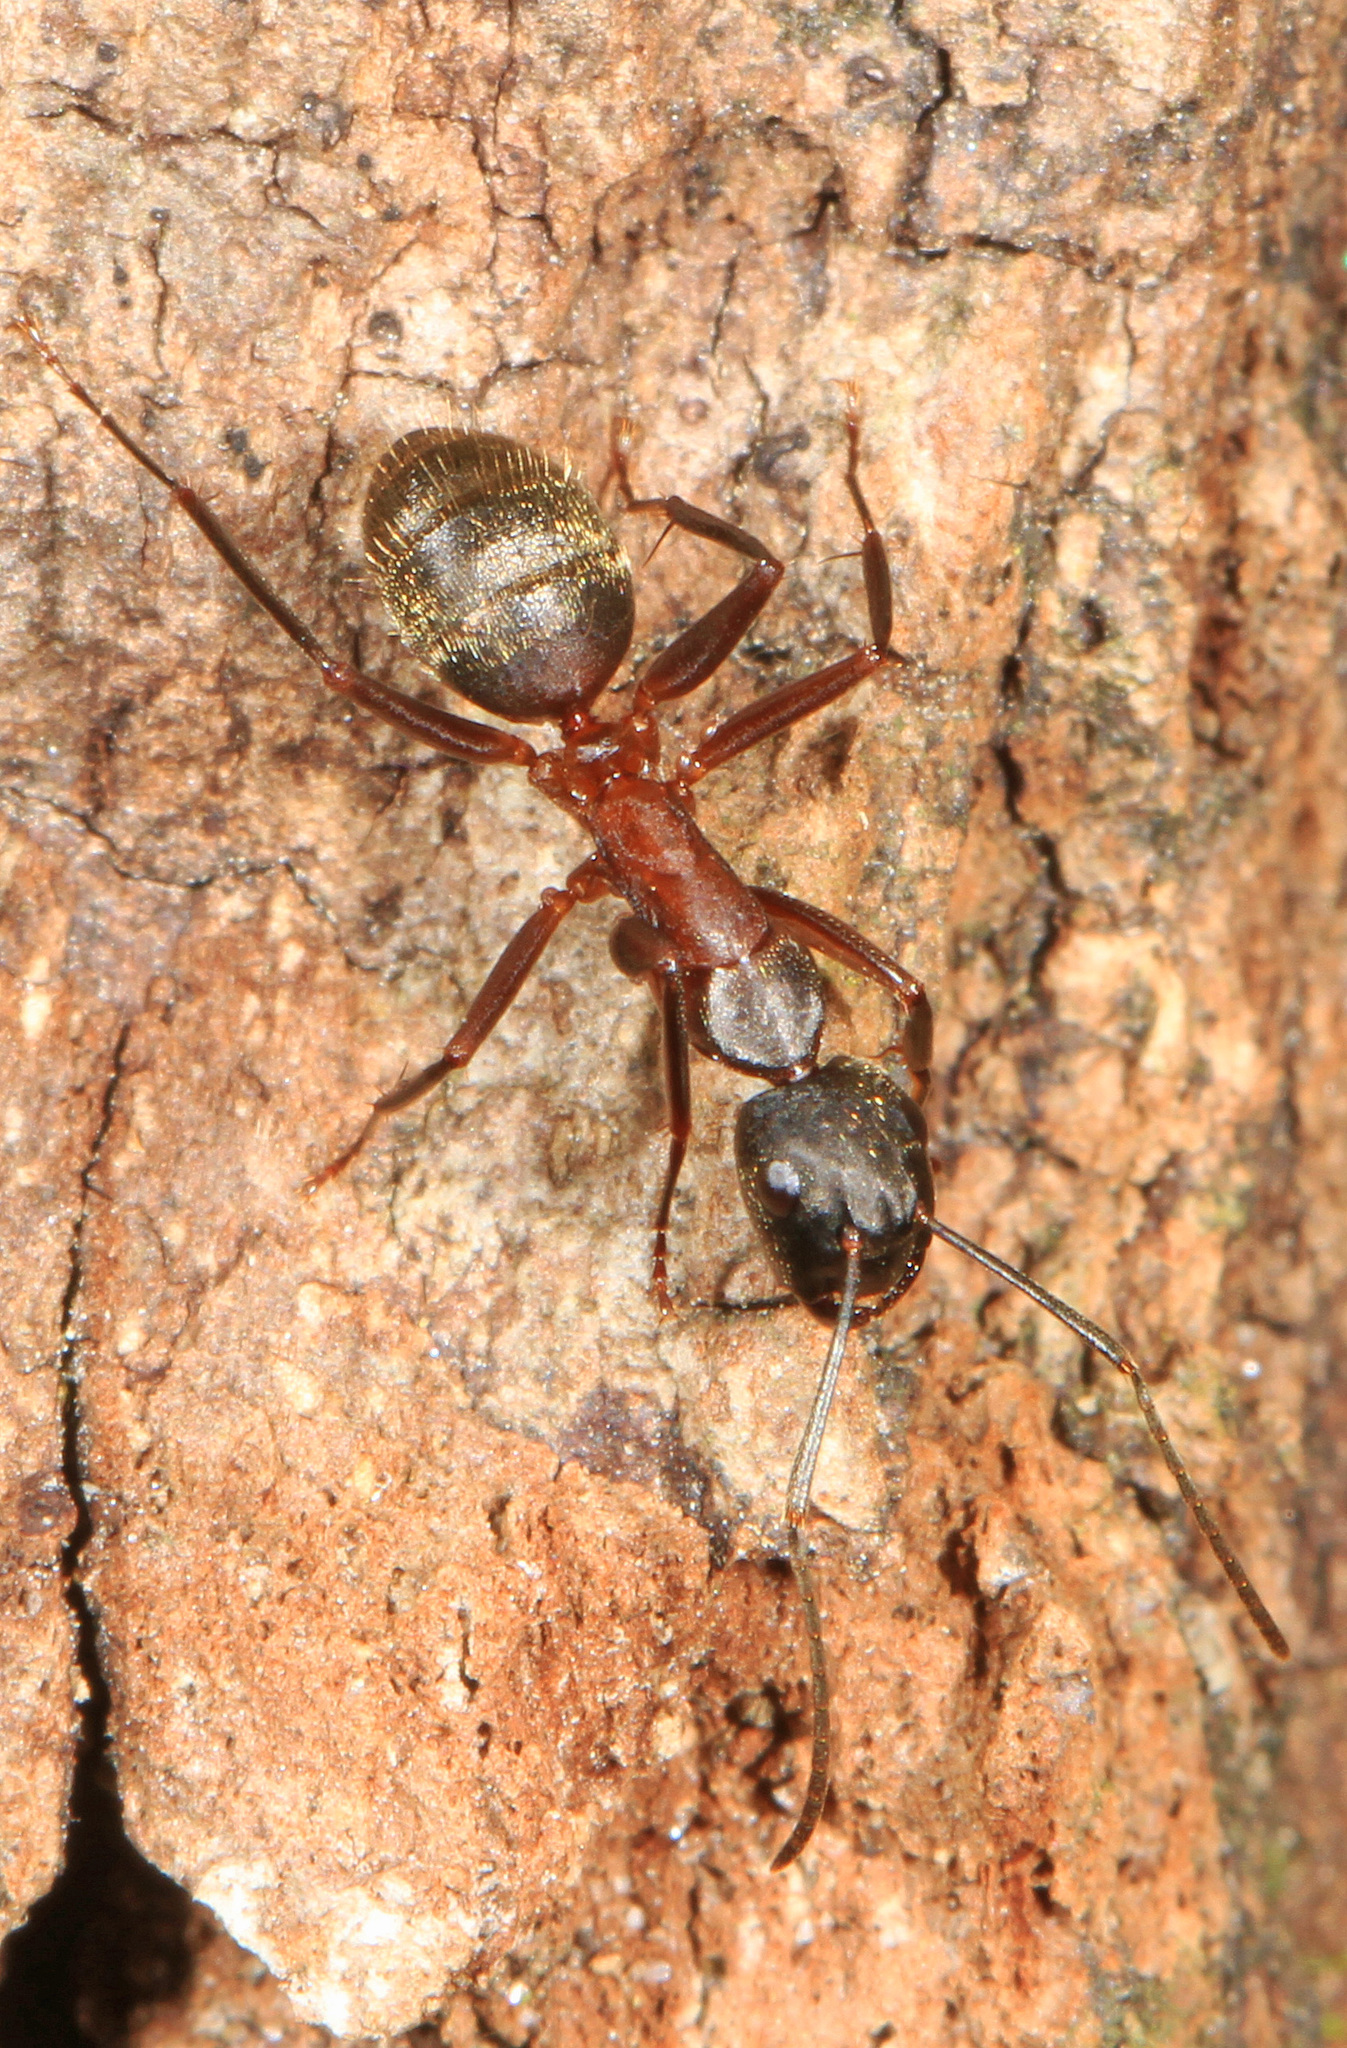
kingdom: Animalia
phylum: Arthropoda
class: Insecta
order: Hymenoptera
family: Formicidae
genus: Camponotus
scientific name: Camponotus chromaiodes
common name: Red carpenter ant
